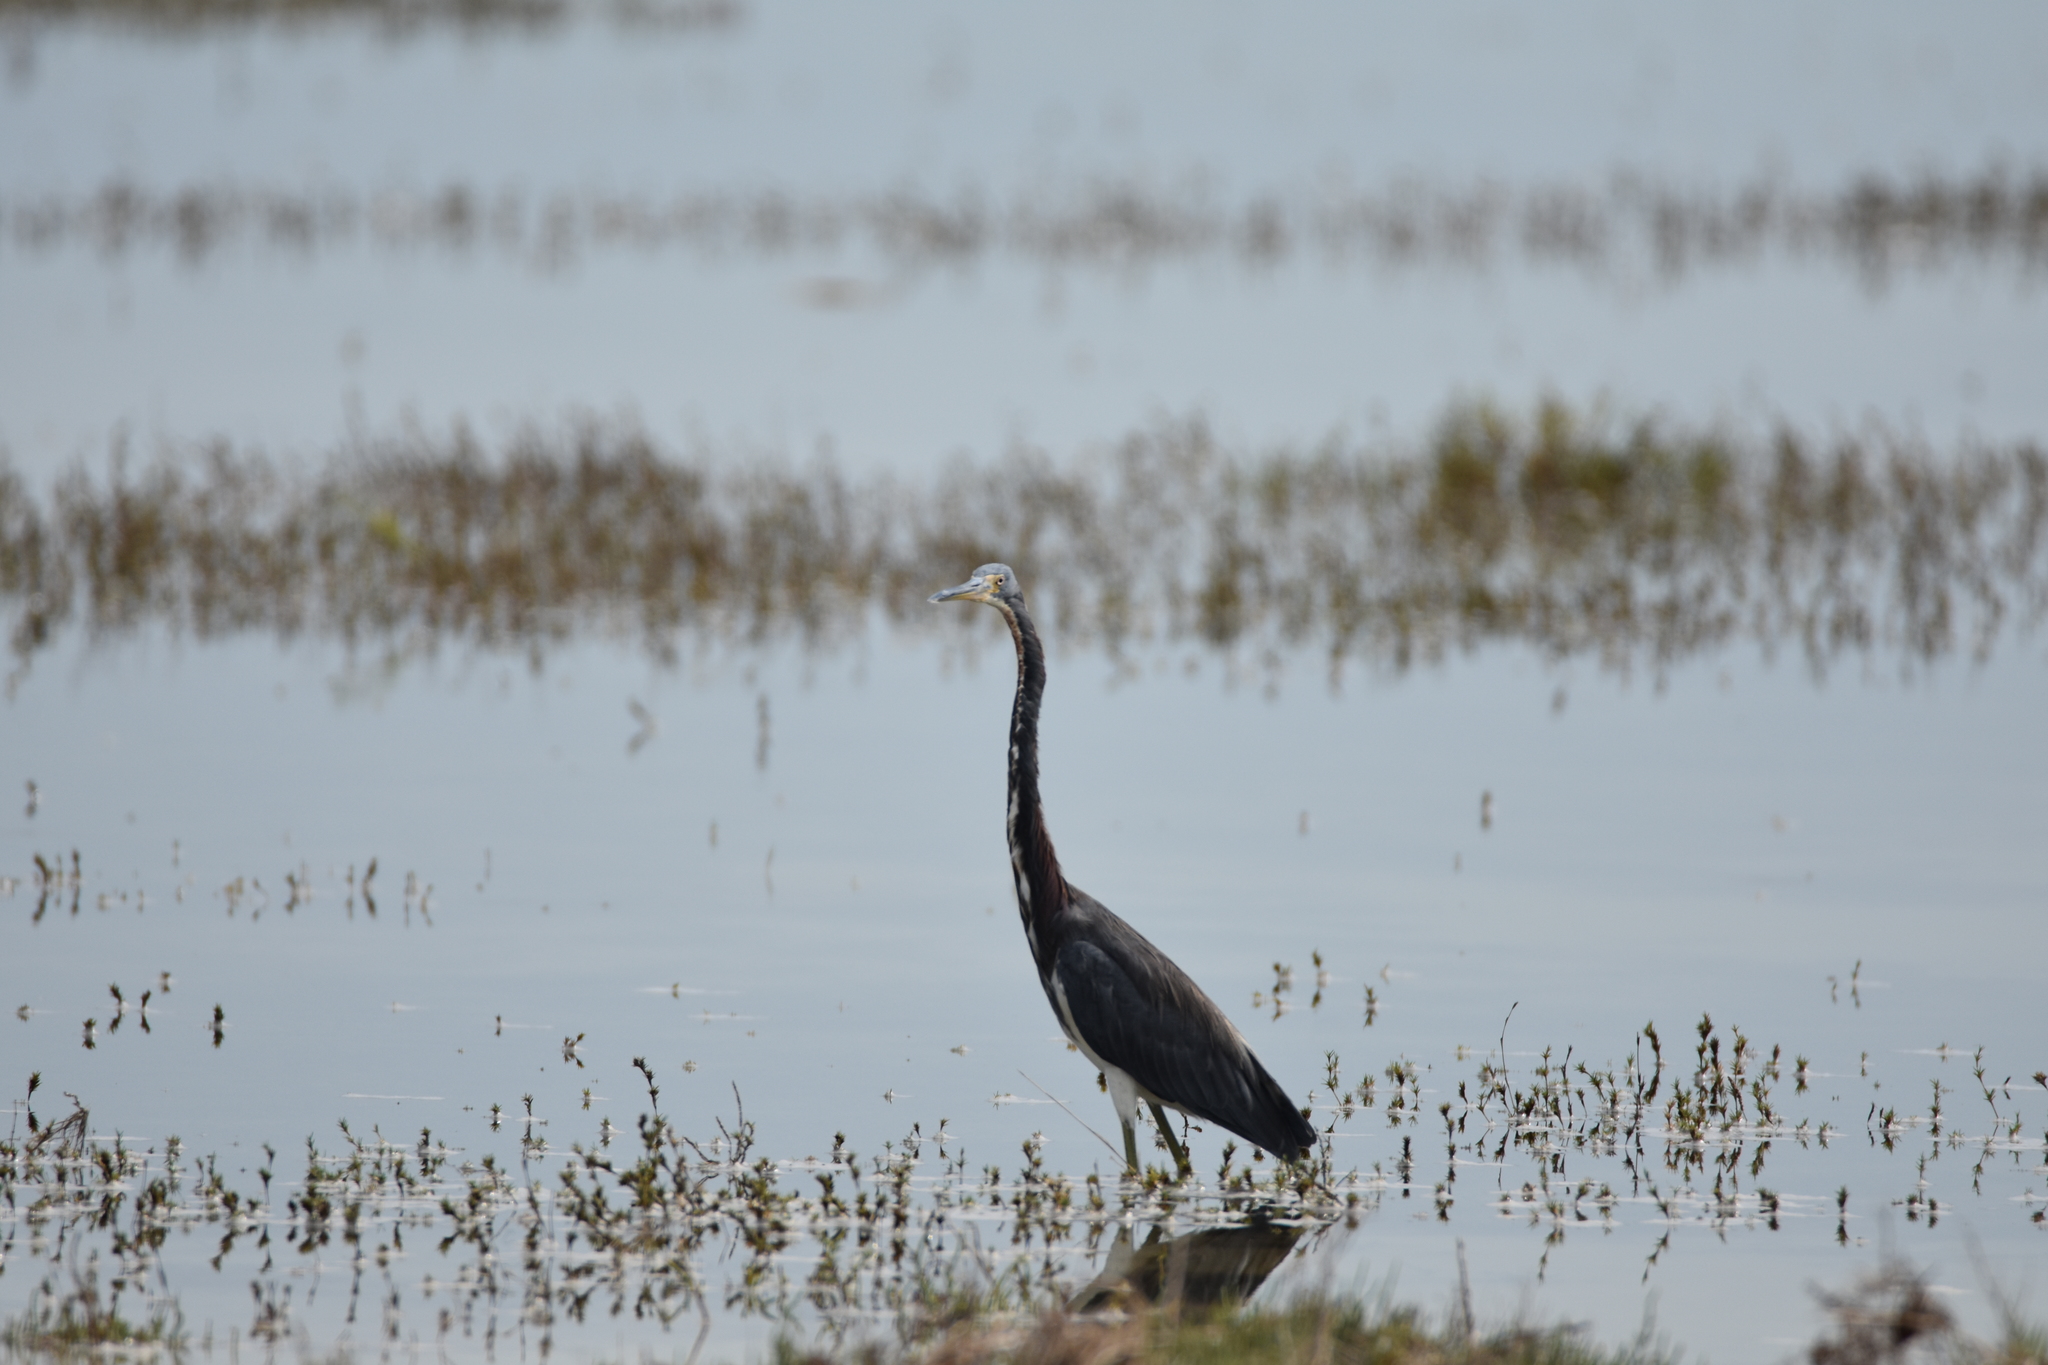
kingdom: Animalia
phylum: Chordata
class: Aves
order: Pelecaniformes
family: Ardeidae
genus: Egretta
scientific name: Egretta tricolor
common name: Tricolored heron
